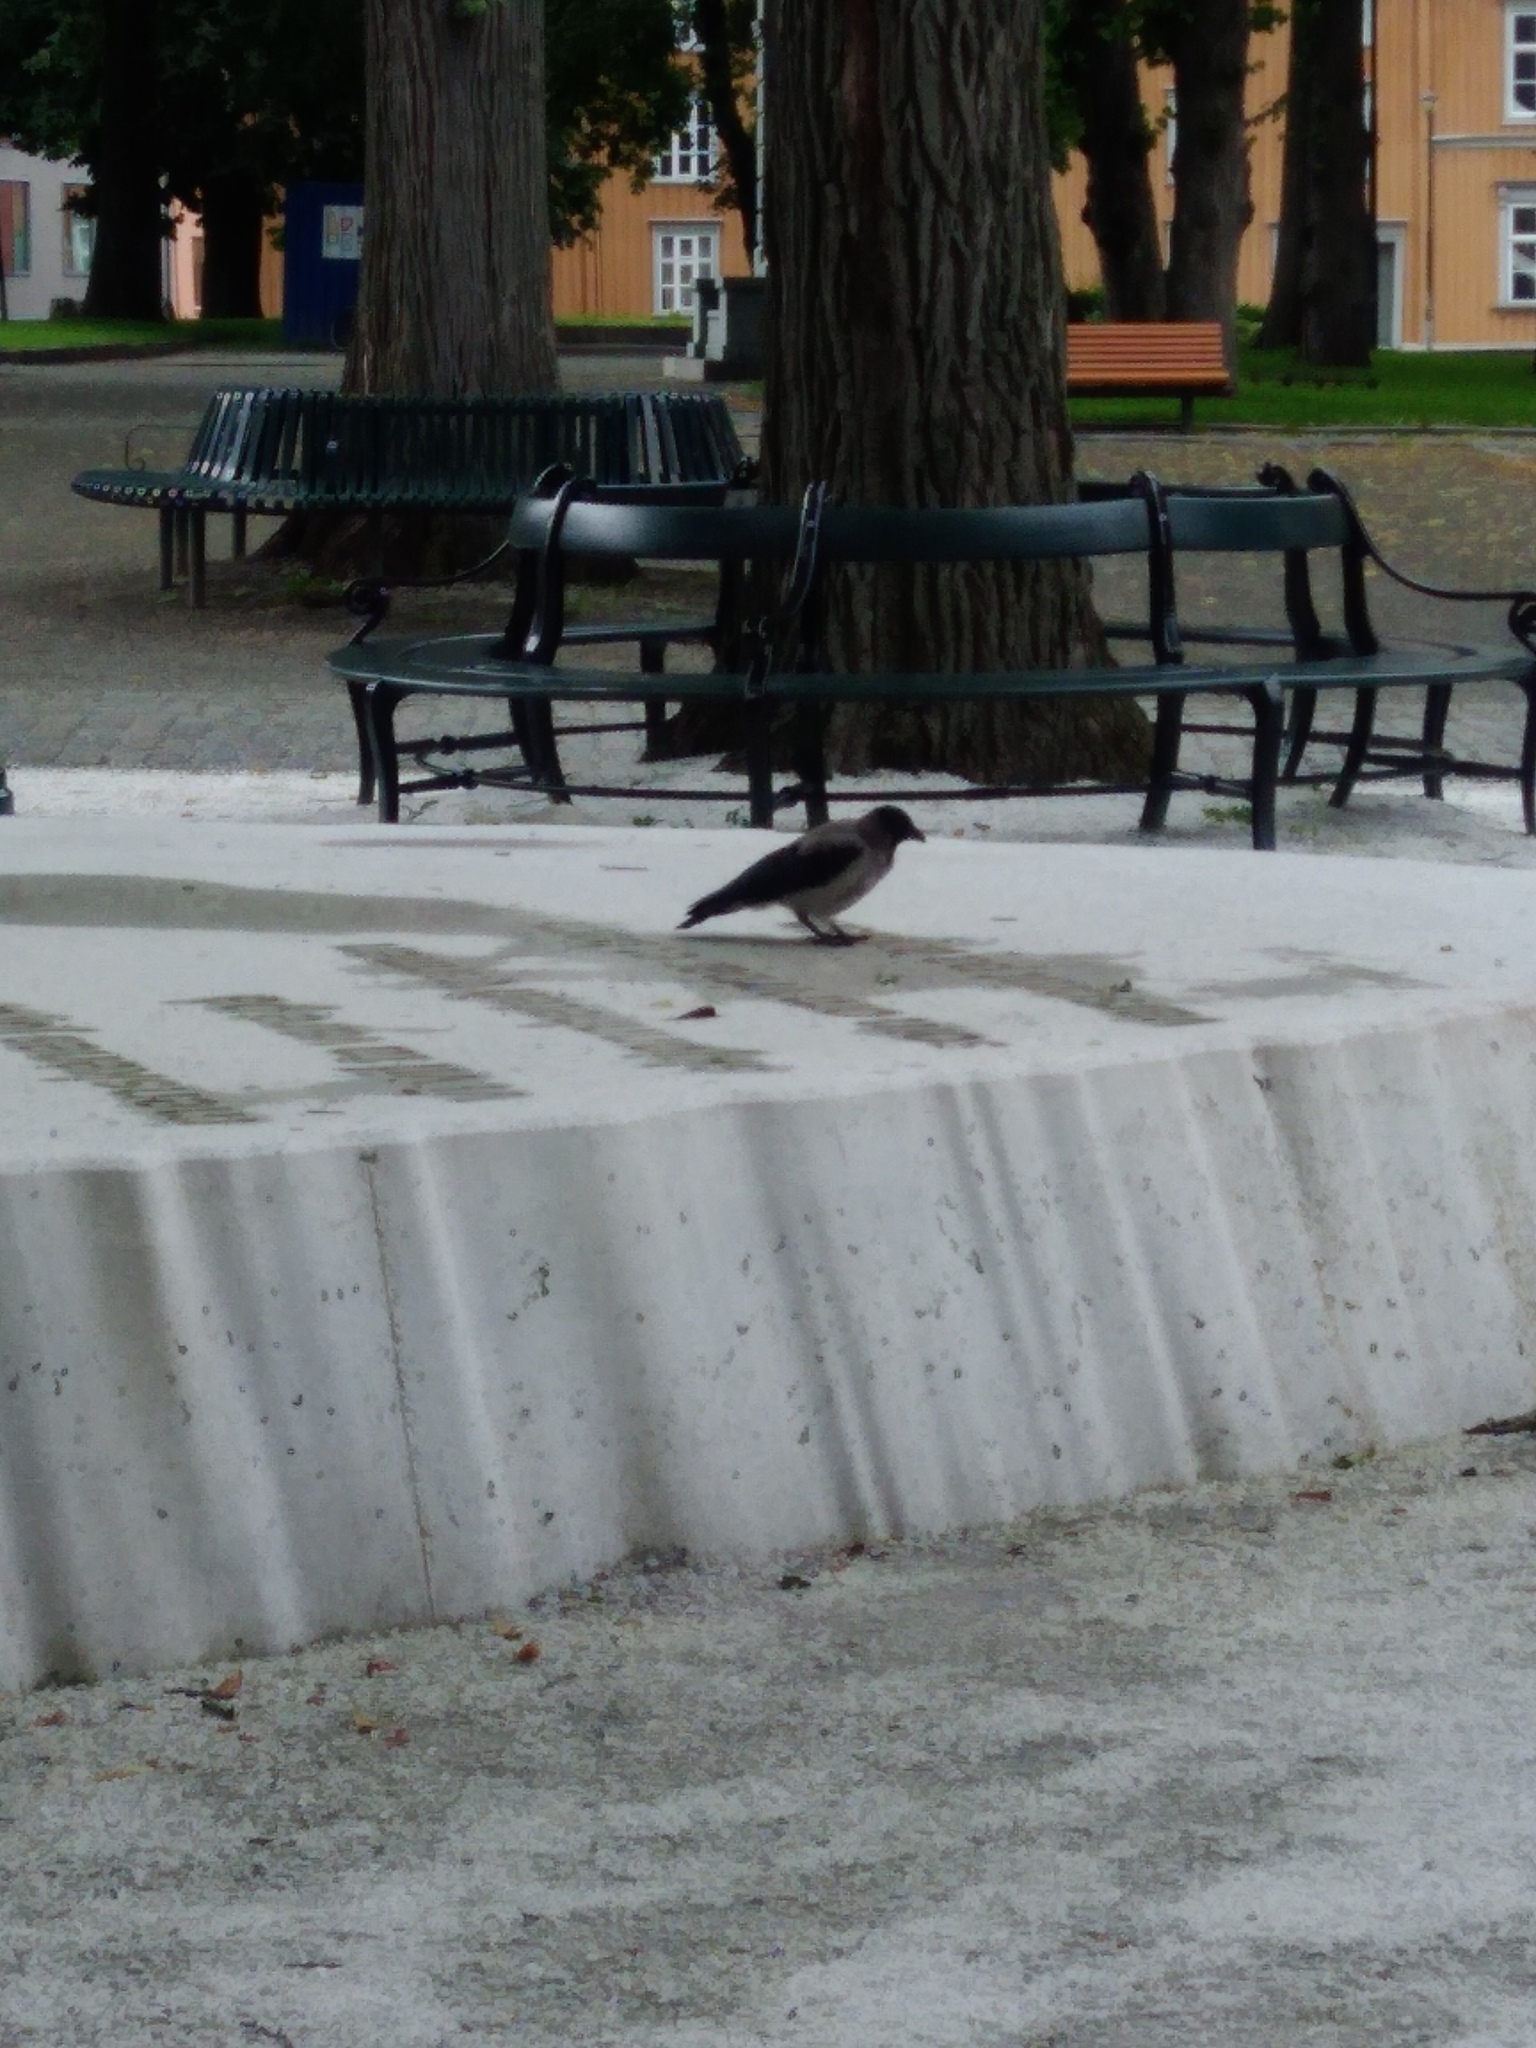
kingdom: Animalia
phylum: Chordata
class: Aves
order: Passeriformes
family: Corvidae
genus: Corvus
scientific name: Corvus cornix
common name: Hooded crow
